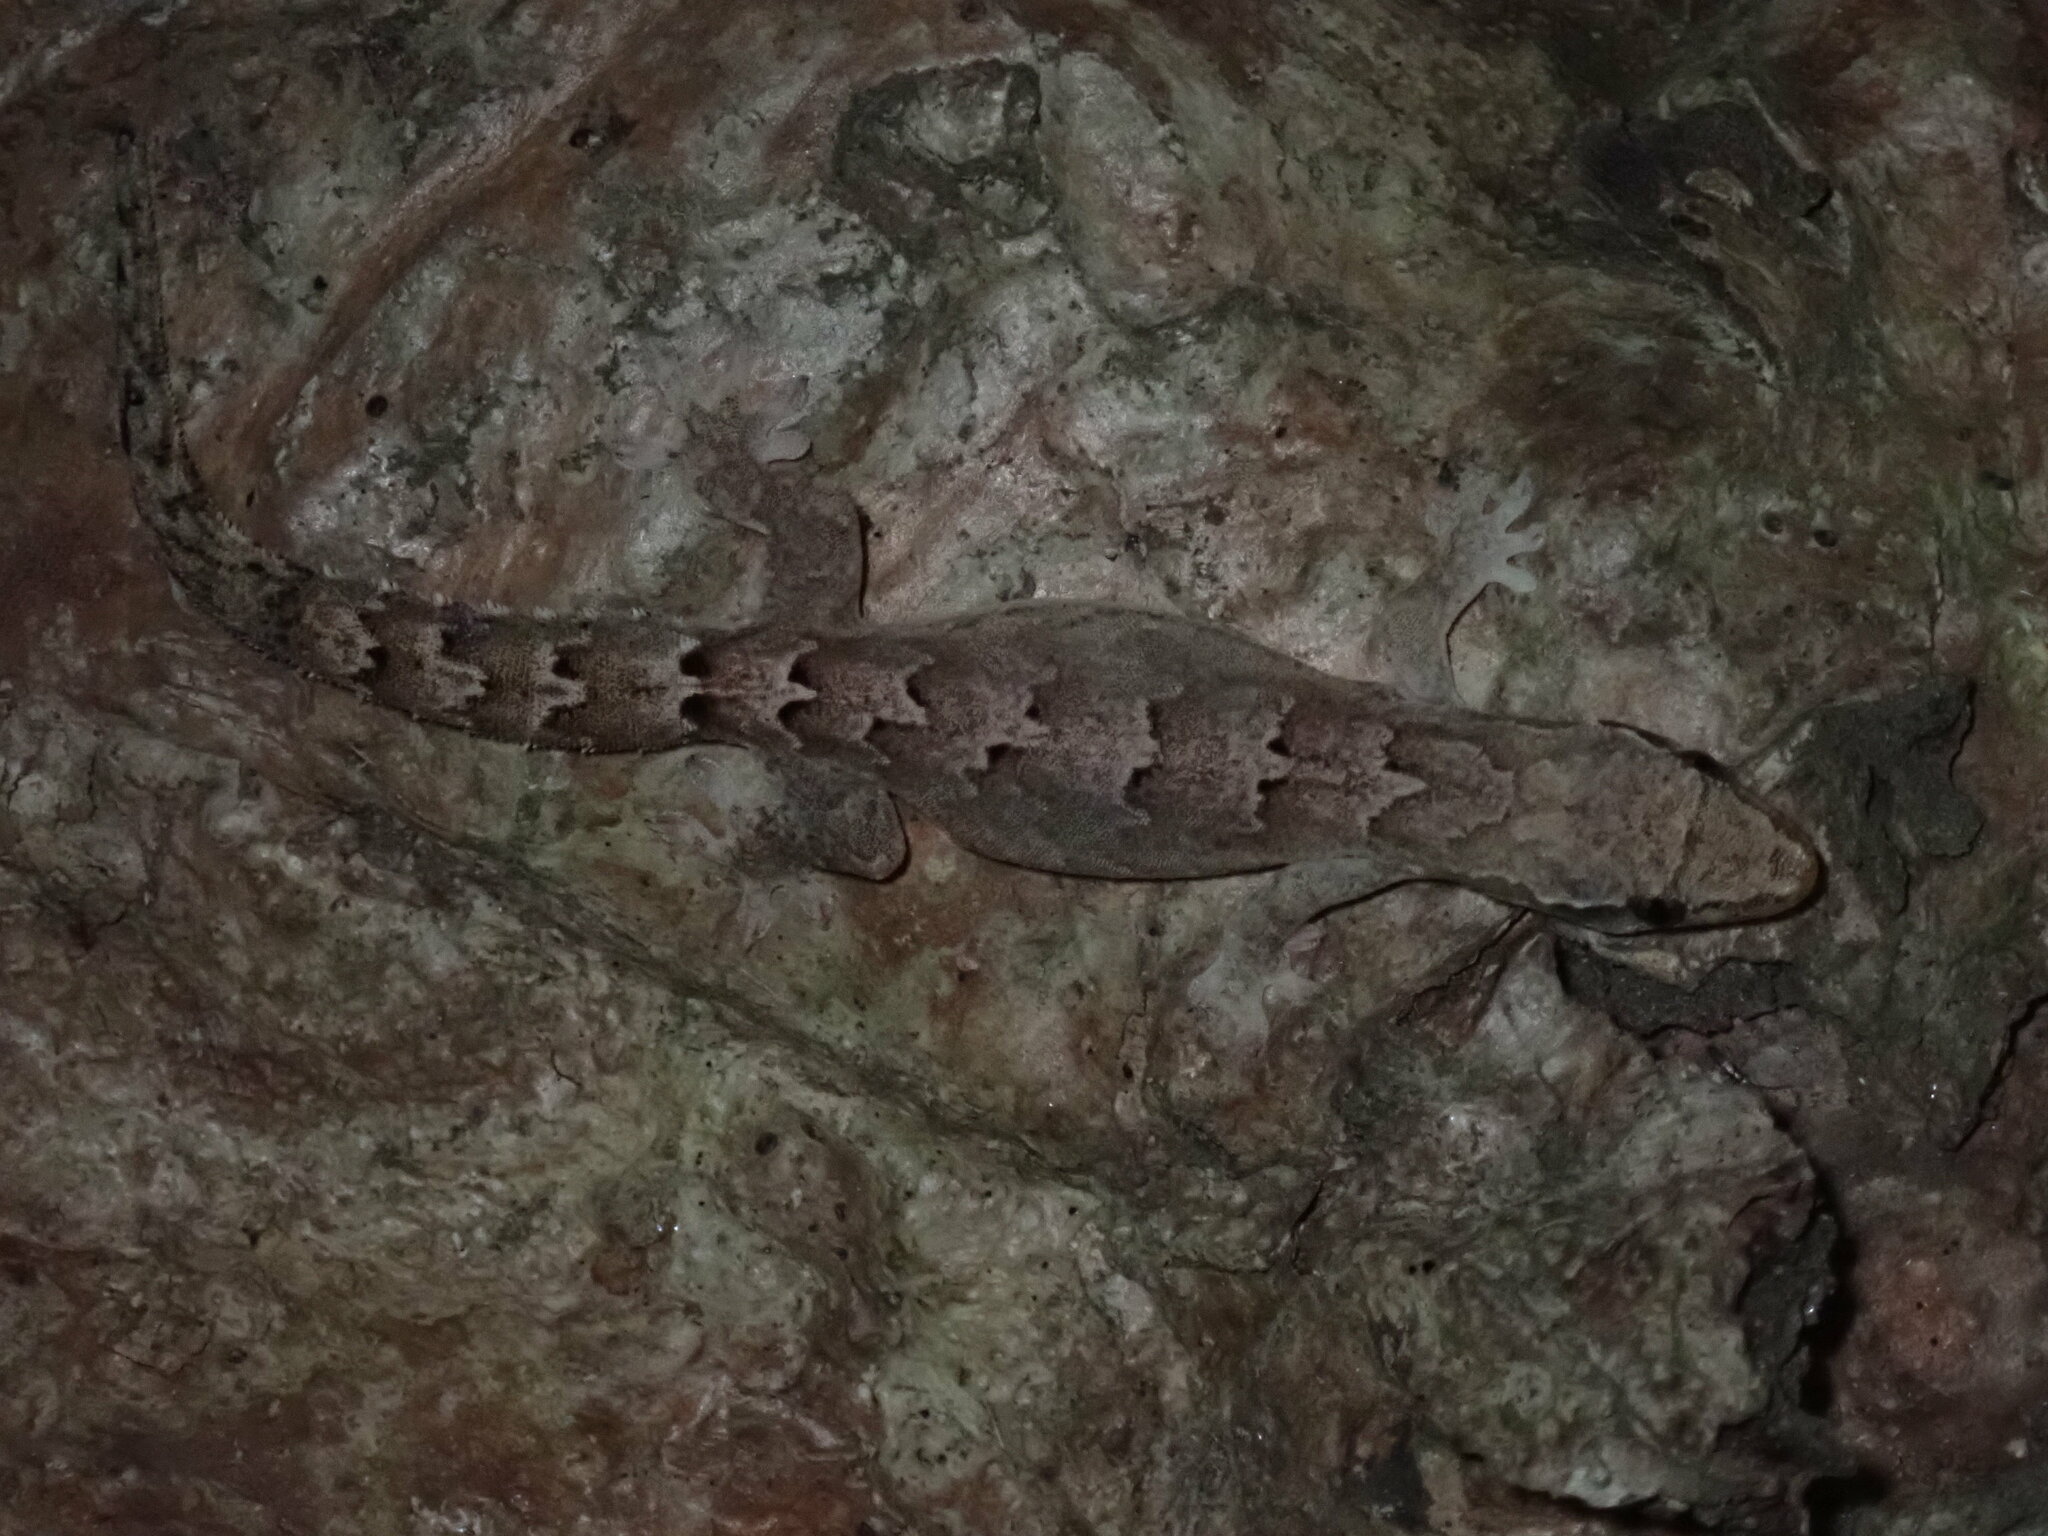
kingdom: Animalia
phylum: Chordata
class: Squamata
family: Gekkonidae
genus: Lepidodactylus
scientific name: Lepidodactylus lugubris
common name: Mourning gecko
